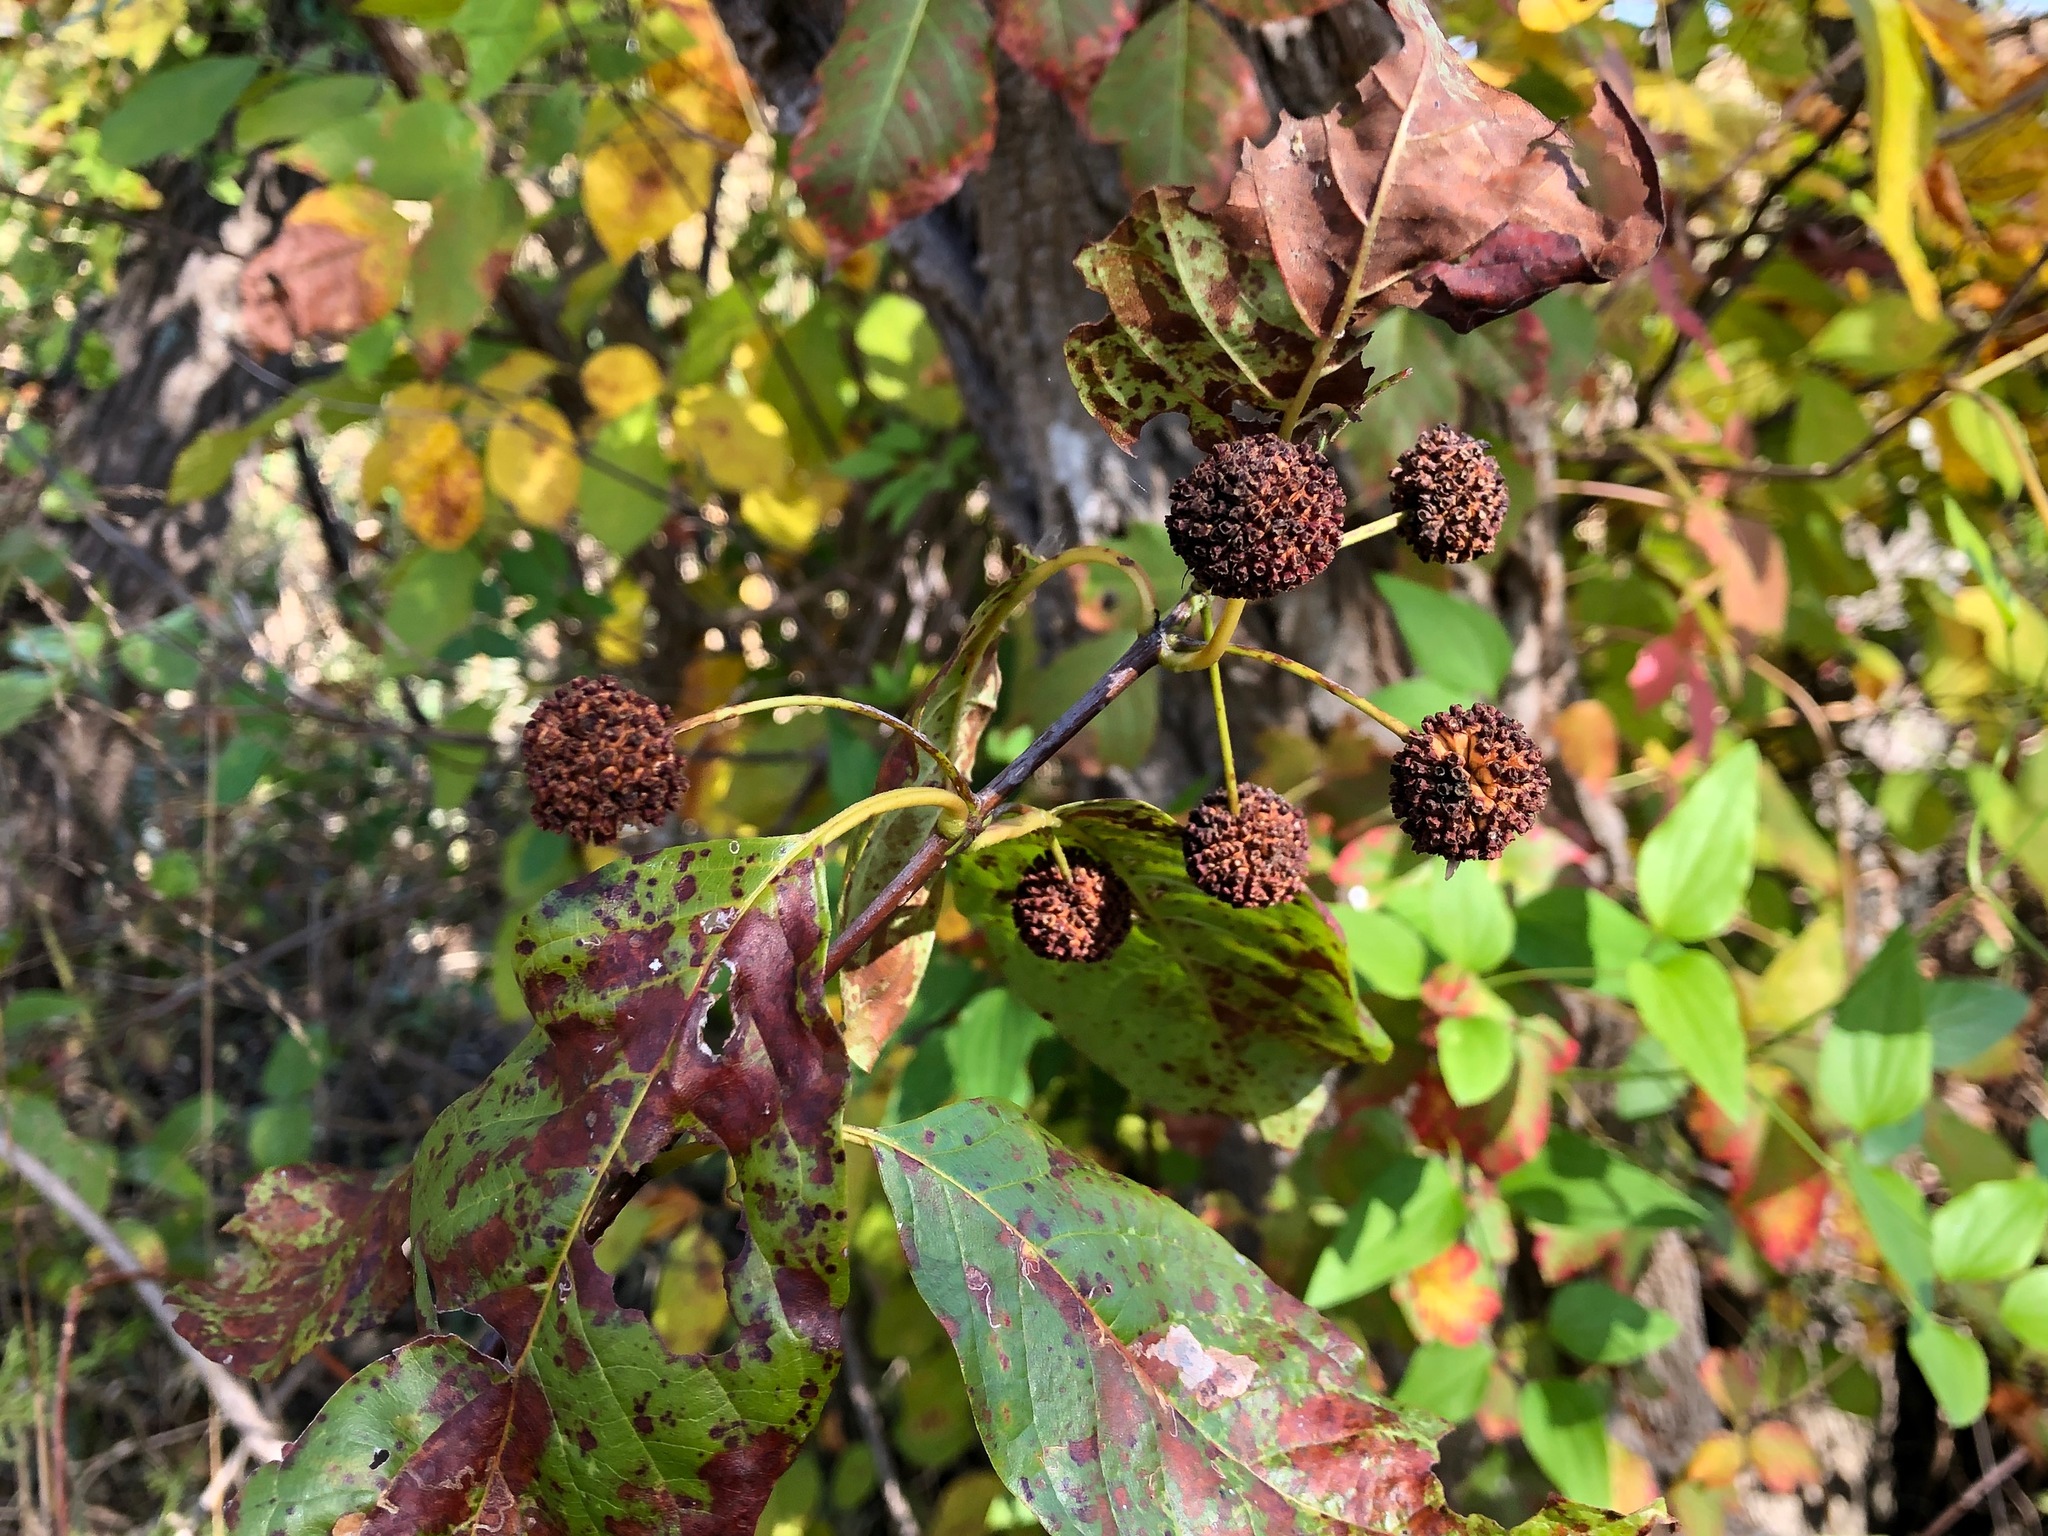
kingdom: Plantae
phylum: Tracheophyta
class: Magnoliopsida
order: Gentianales
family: Rubiaceae
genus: Cephalanthus
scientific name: Cephalanthus occidentalis
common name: Button-willow
